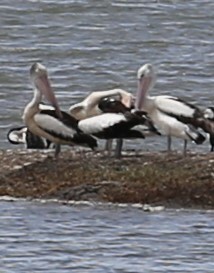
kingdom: Animalia
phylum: Chordata
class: Aves
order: Pelecaniformes
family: Pelecanidae
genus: Pelecanus
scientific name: Pelecanus conspicillatus
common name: Australian pelican
